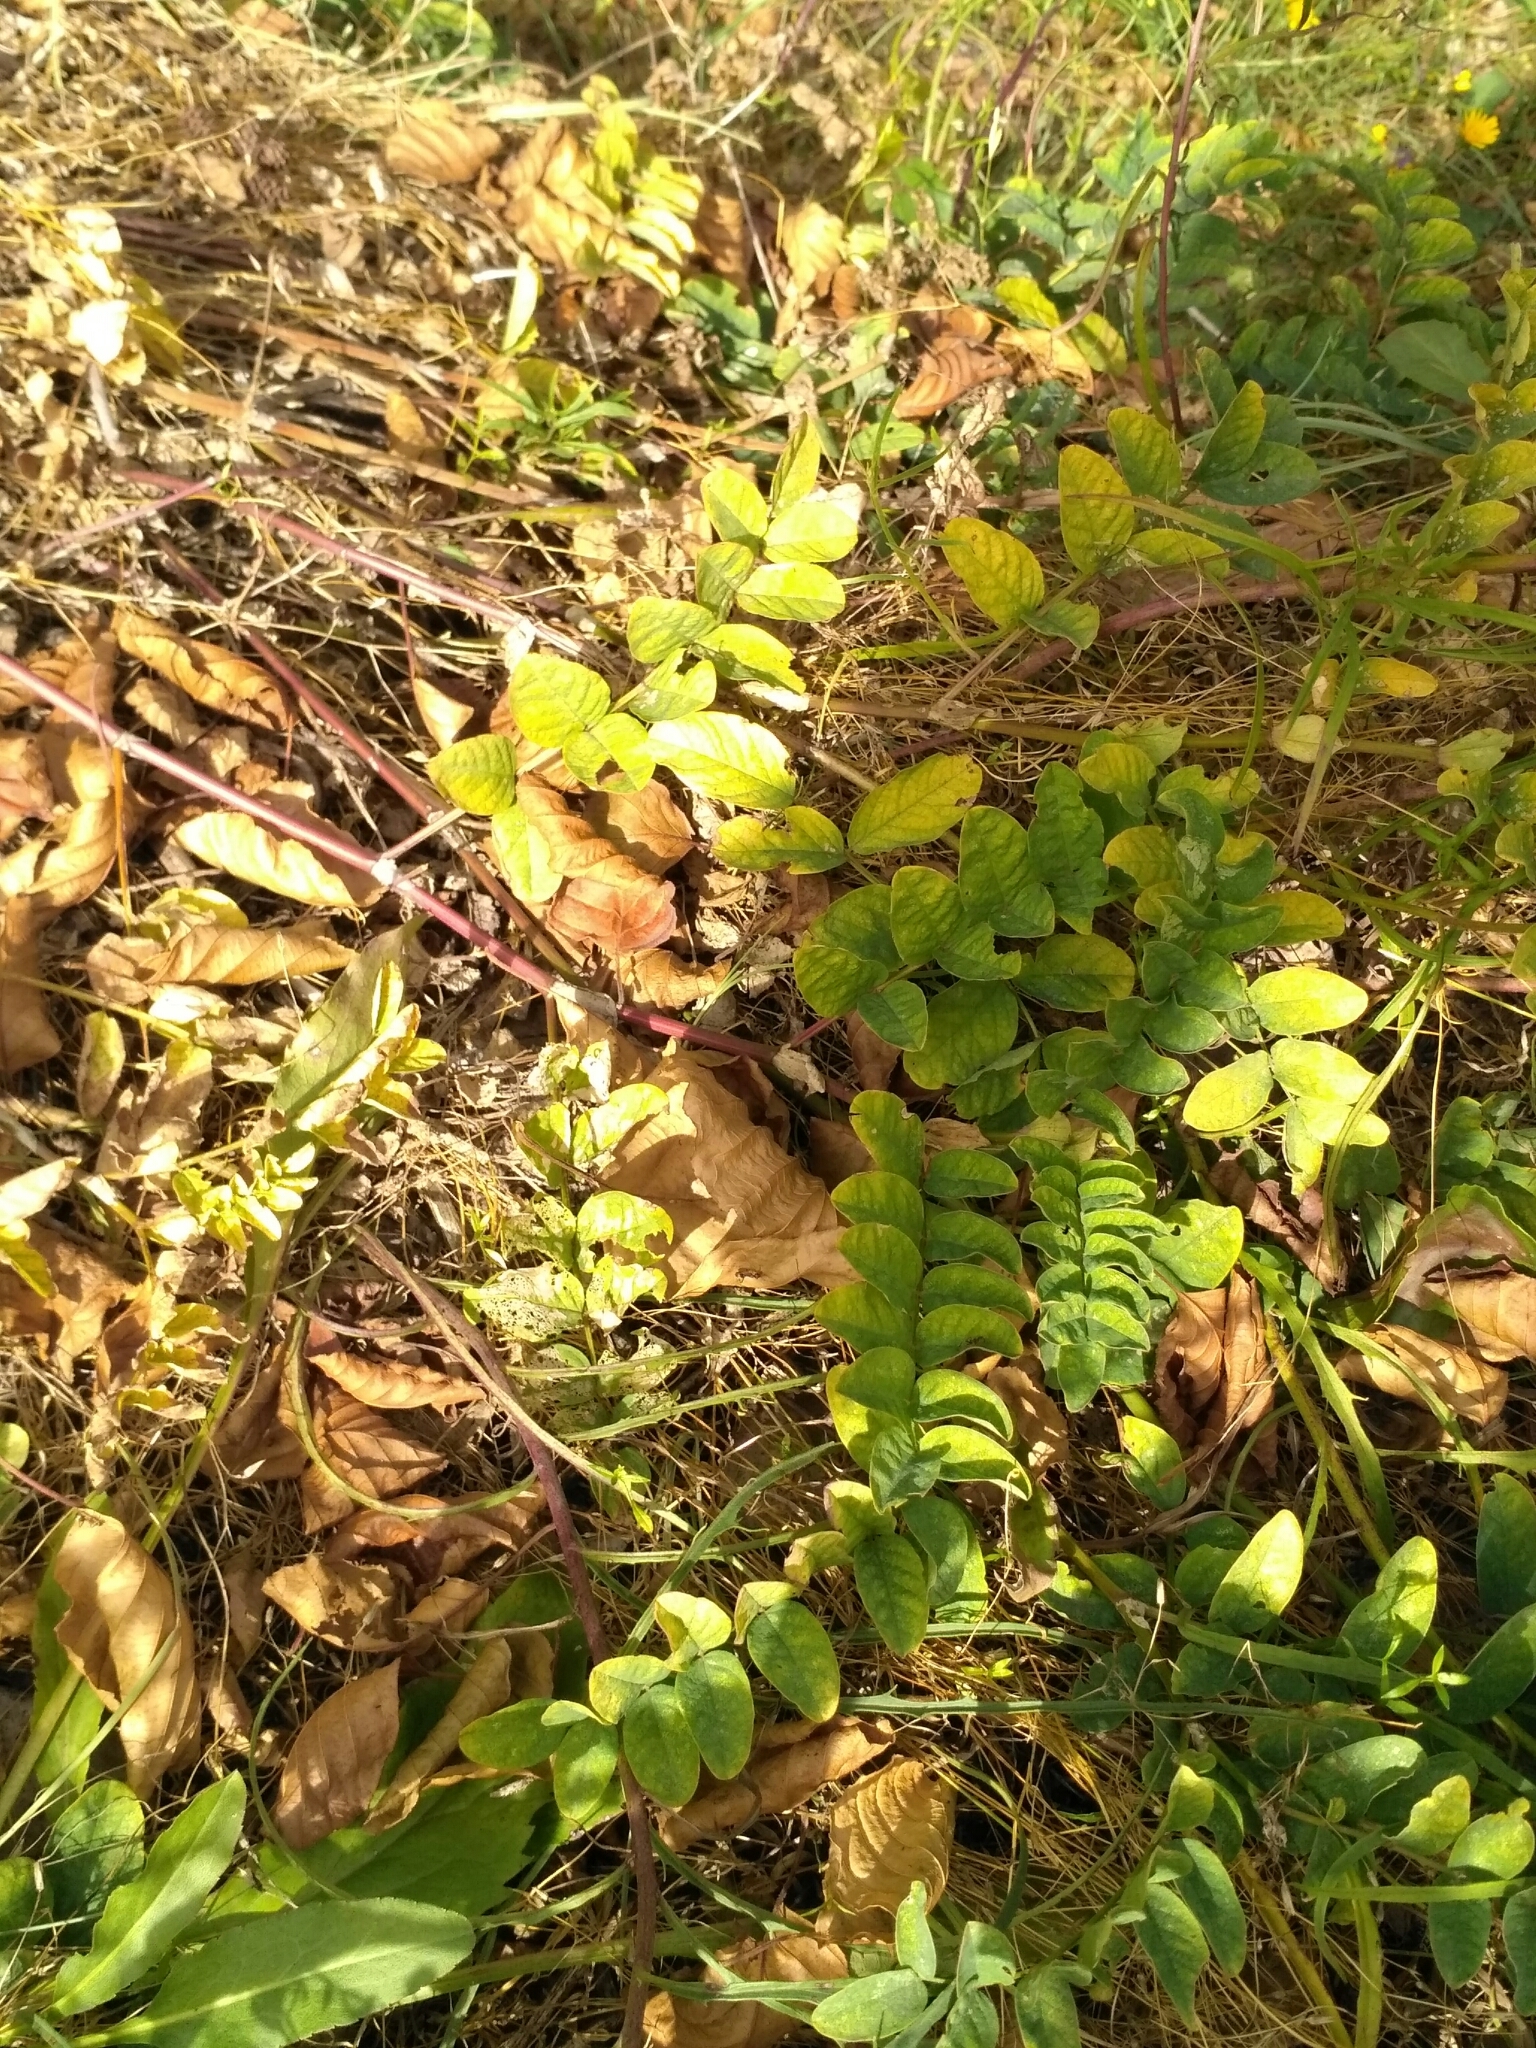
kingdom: Plantae
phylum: Tracheophyta
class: Magnoliopsida
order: Fabales
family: Fabaceae
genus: Astragalus
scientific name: Astragalus glycyphyllos
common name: Wild liquorice
